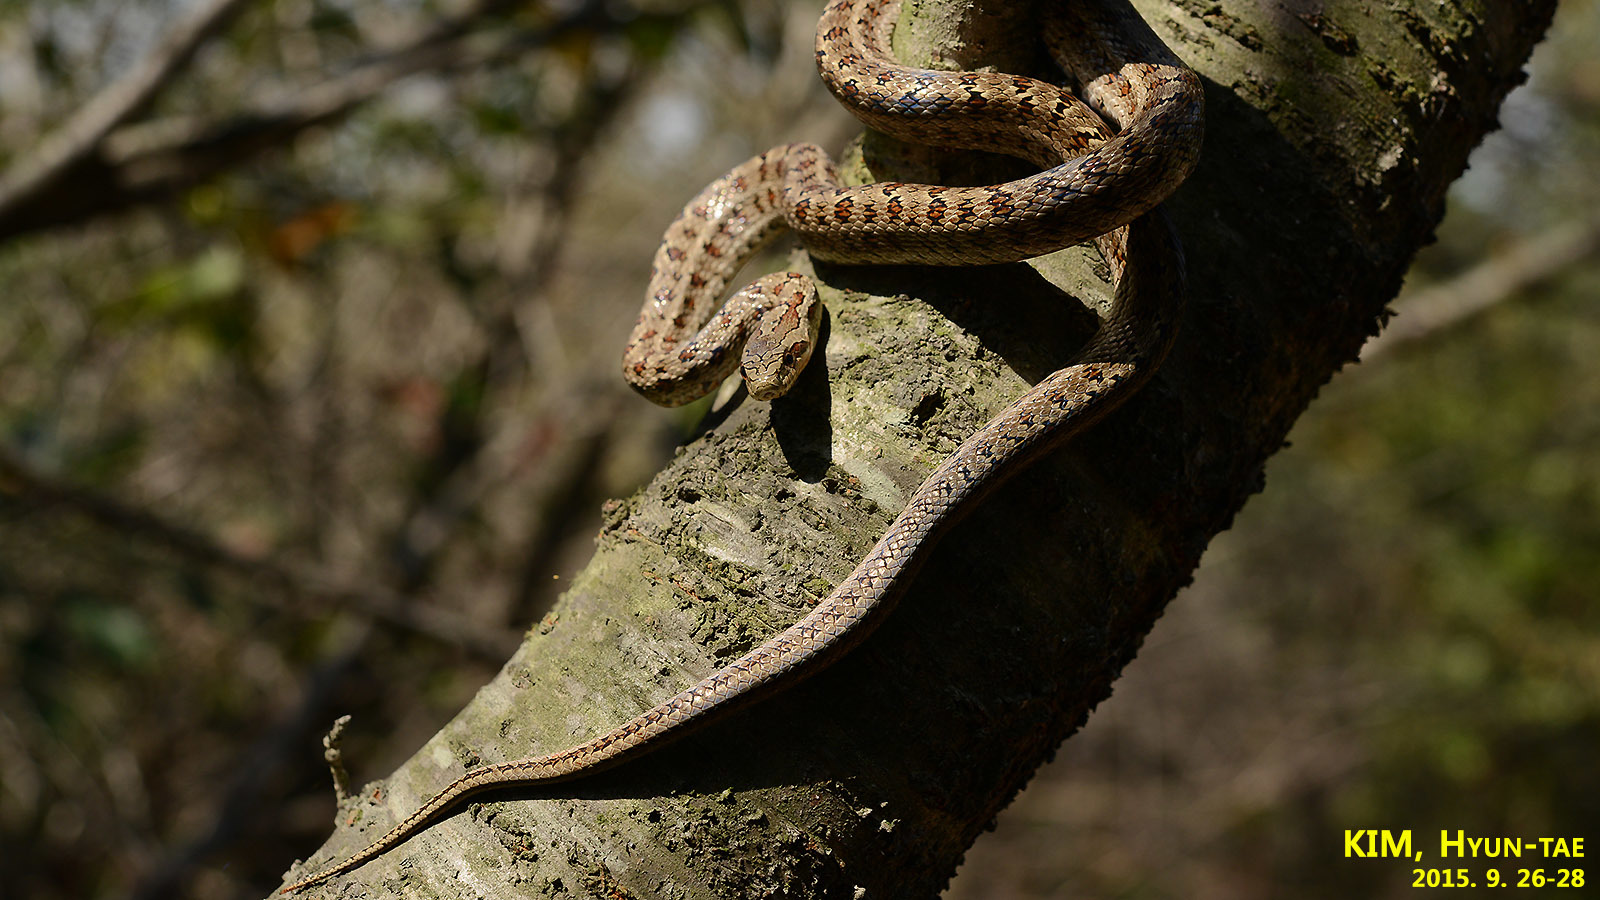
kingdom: Animalia
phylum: Chordata
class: Squamata
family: Colubridae
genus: Elaphe
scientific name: Elaphe dione
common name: Dione ratsnake
